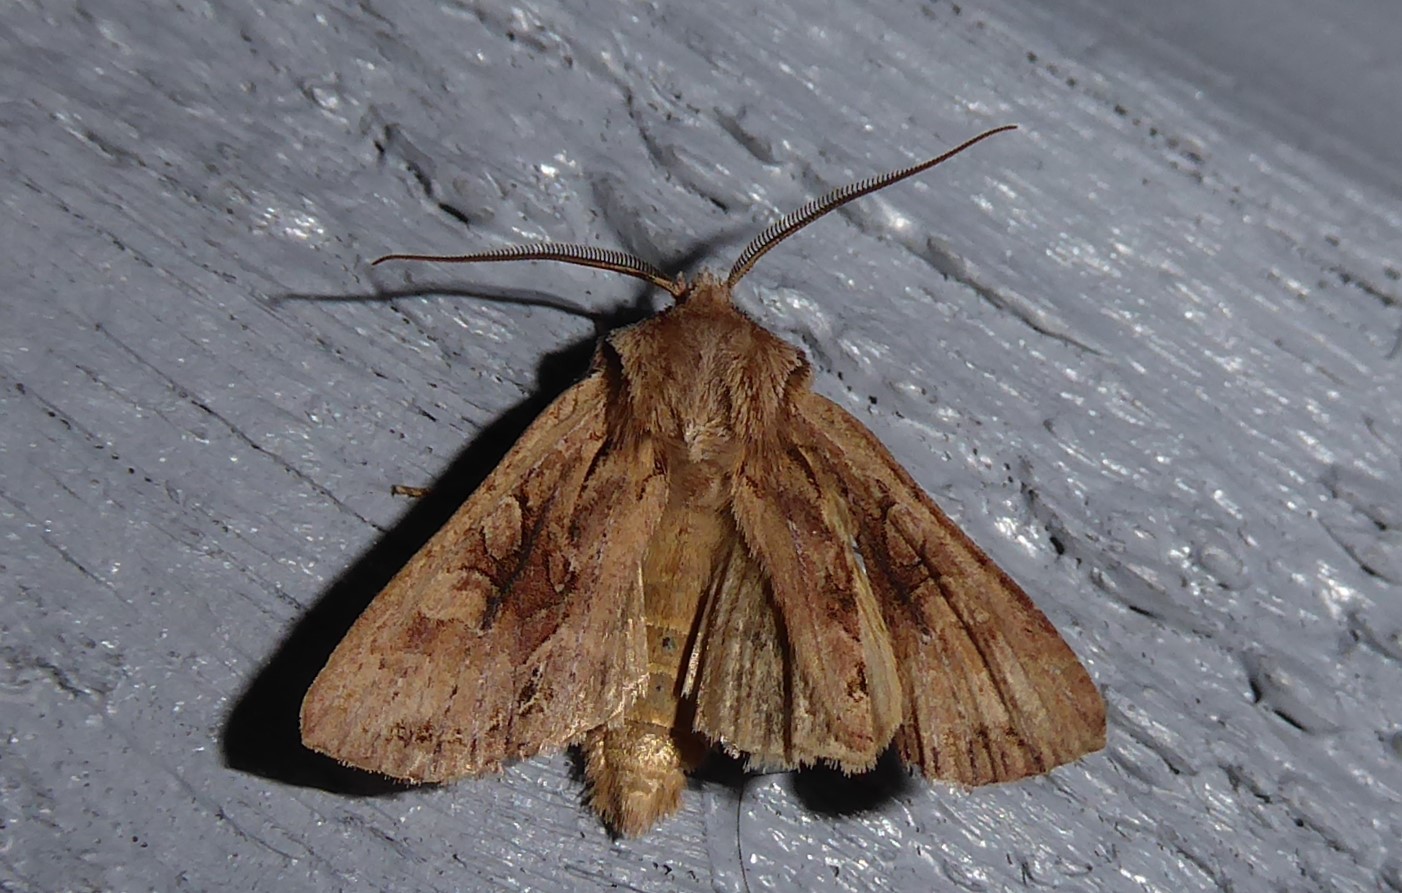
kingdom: Animalia
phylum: Arthropoda
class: Insecta
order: Lepidoptera
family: Noctuidae
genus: Ichneutica
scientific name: Ichneutica
